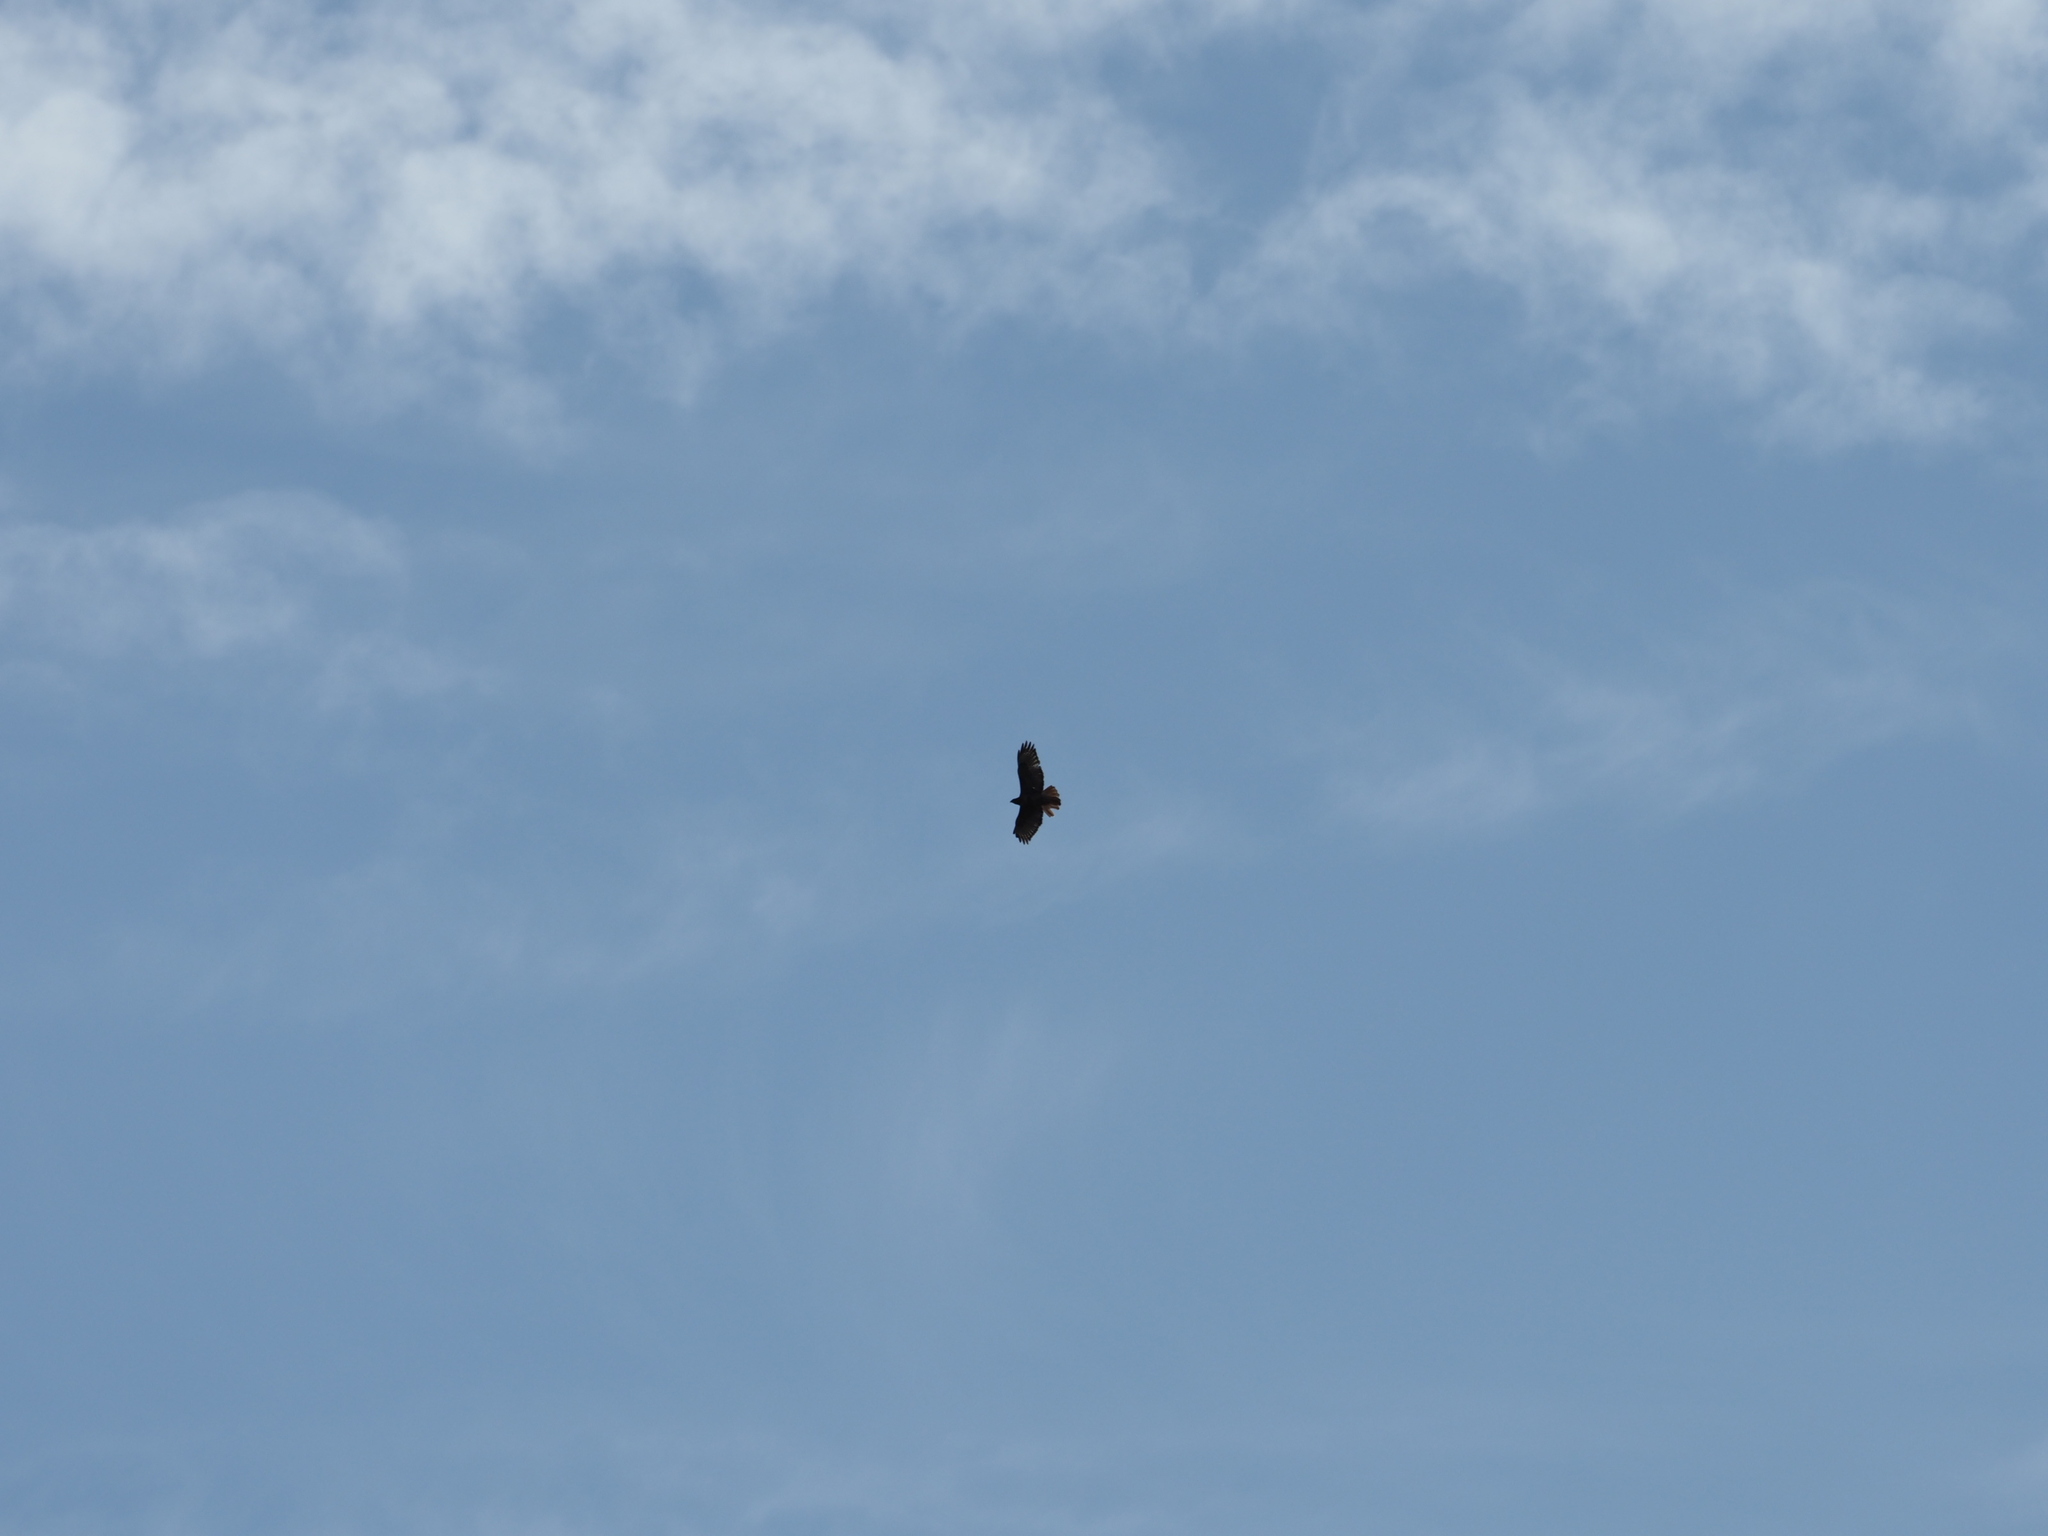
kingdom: Animalia
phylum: Chordata
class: Aves
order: Accipitriformes
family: Accipitridae
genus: Buteo
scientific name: Buteo jamaicensis
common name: Red-tailed hawk
